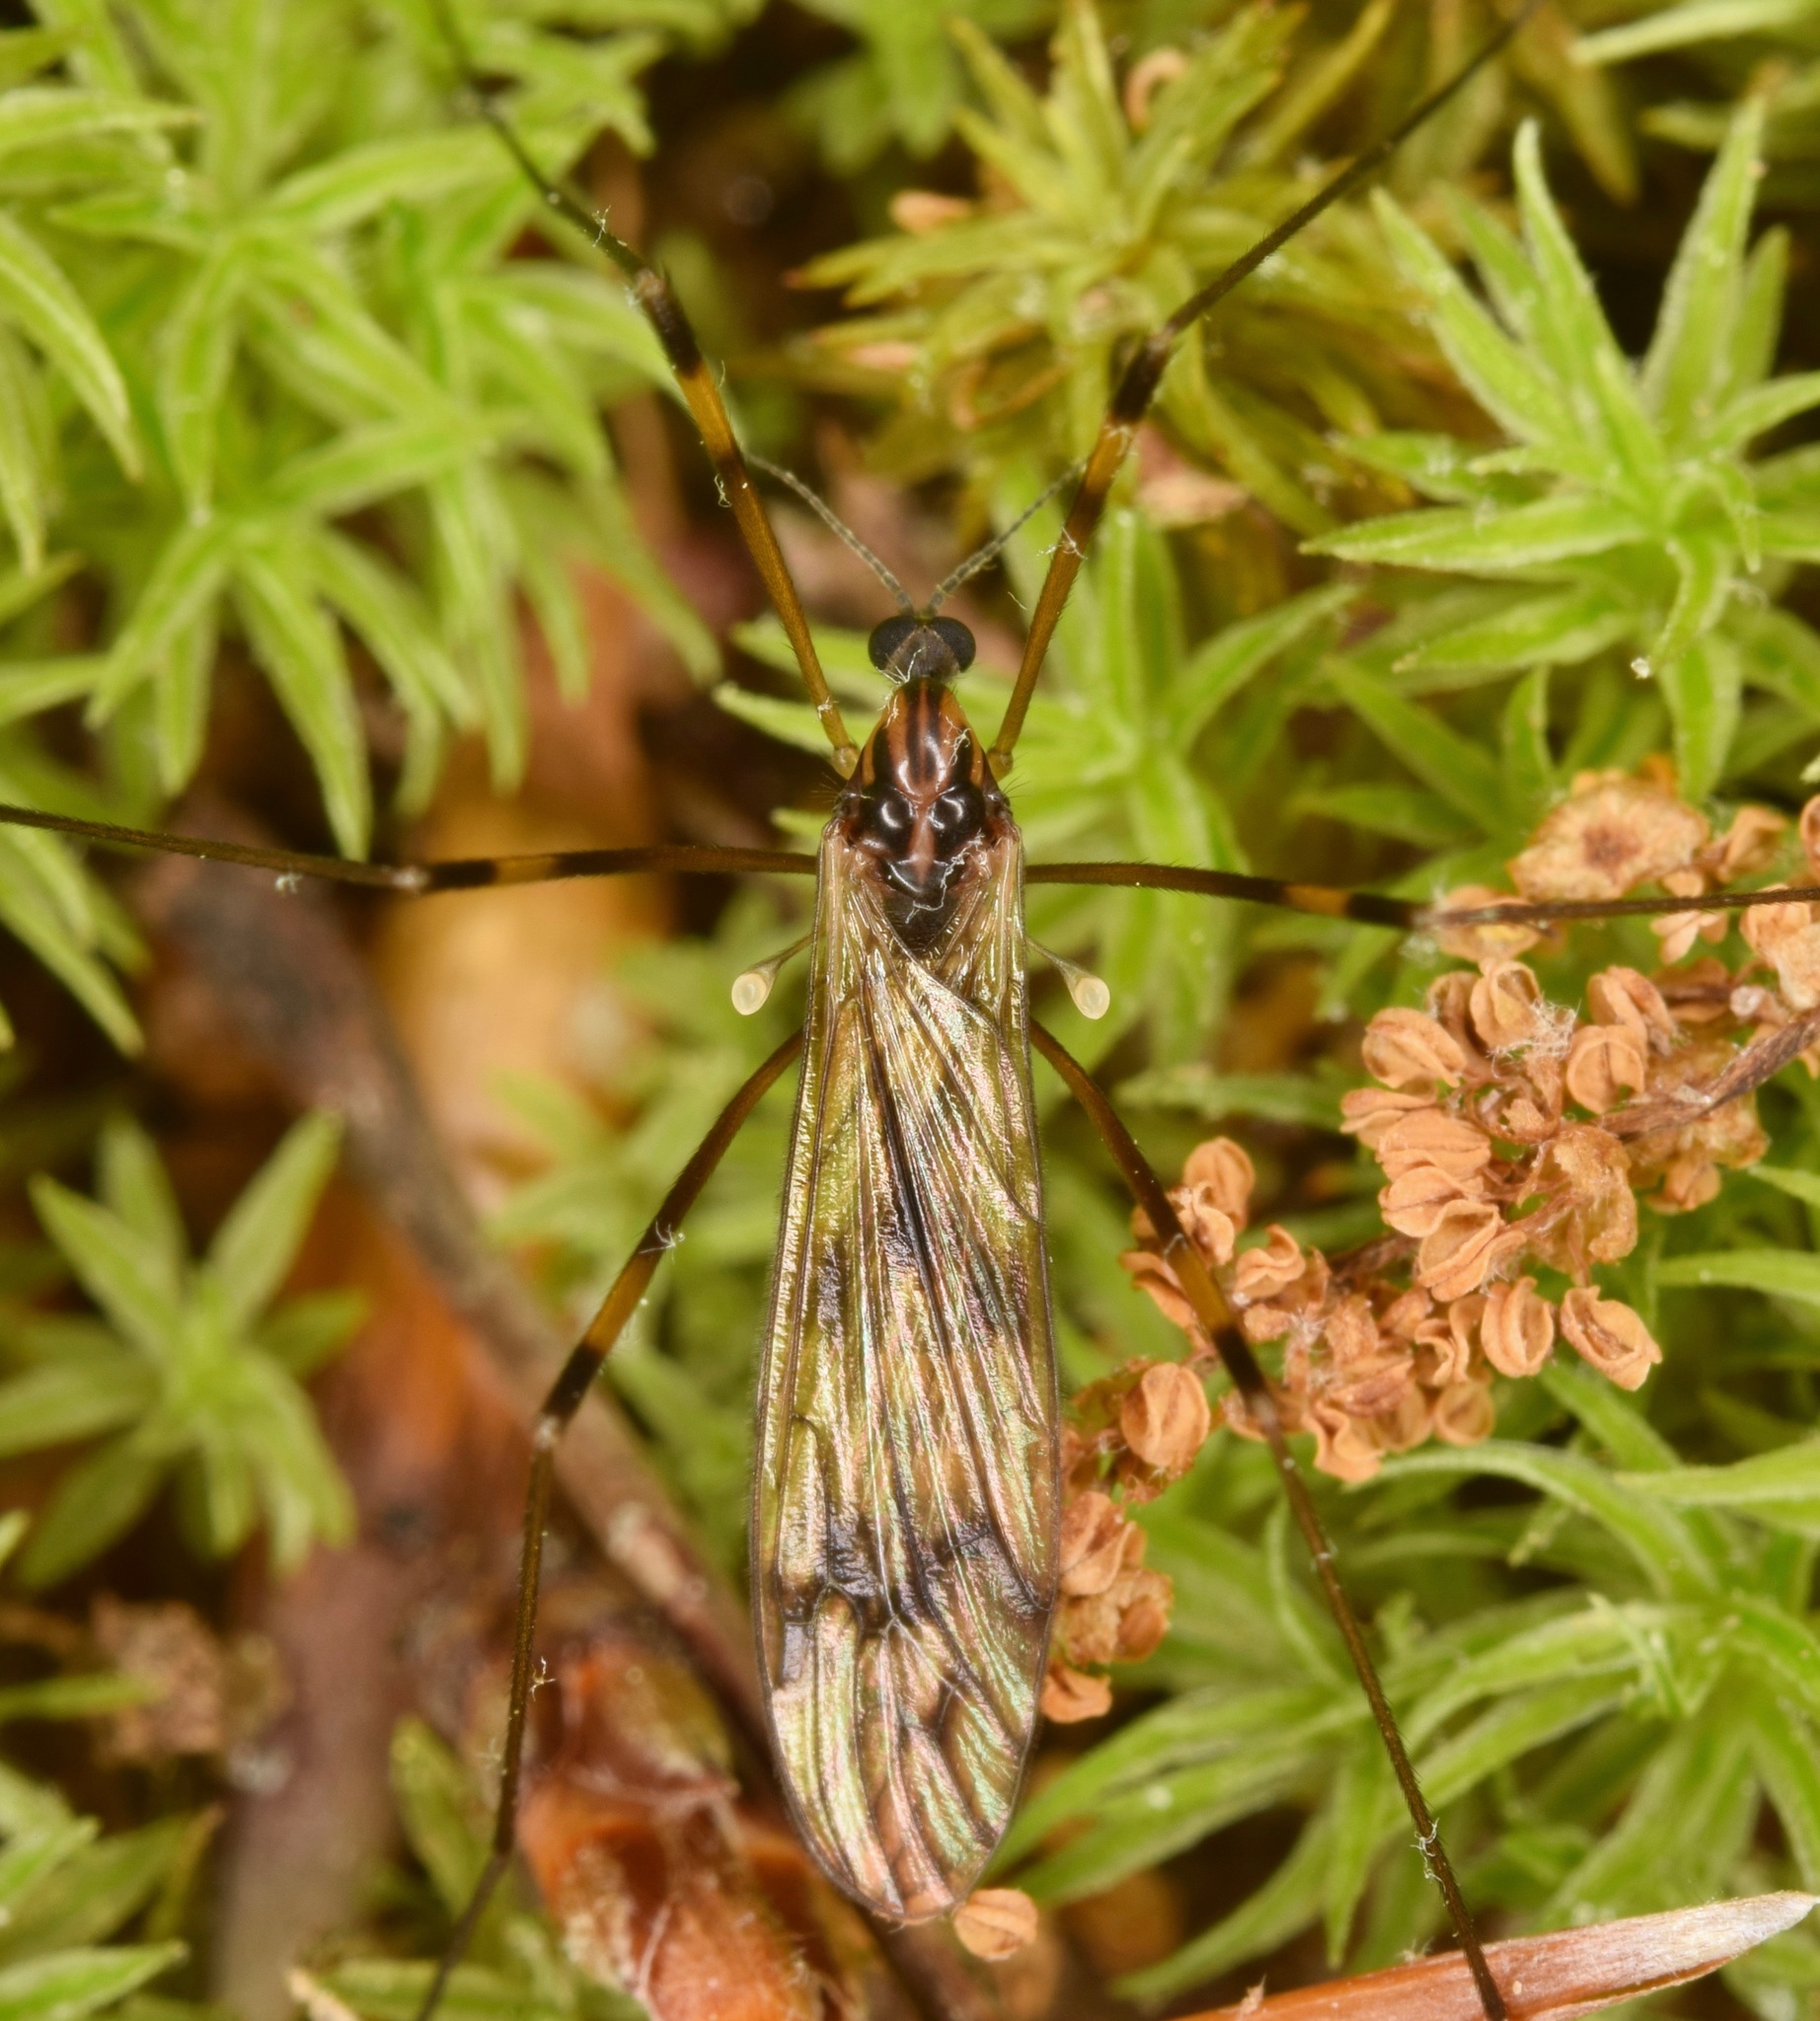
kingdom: Animalia
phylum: Arthropoda
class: Insecta
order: Diptera
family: Limoniidae
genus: Limonia
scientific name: Limonia indigena
